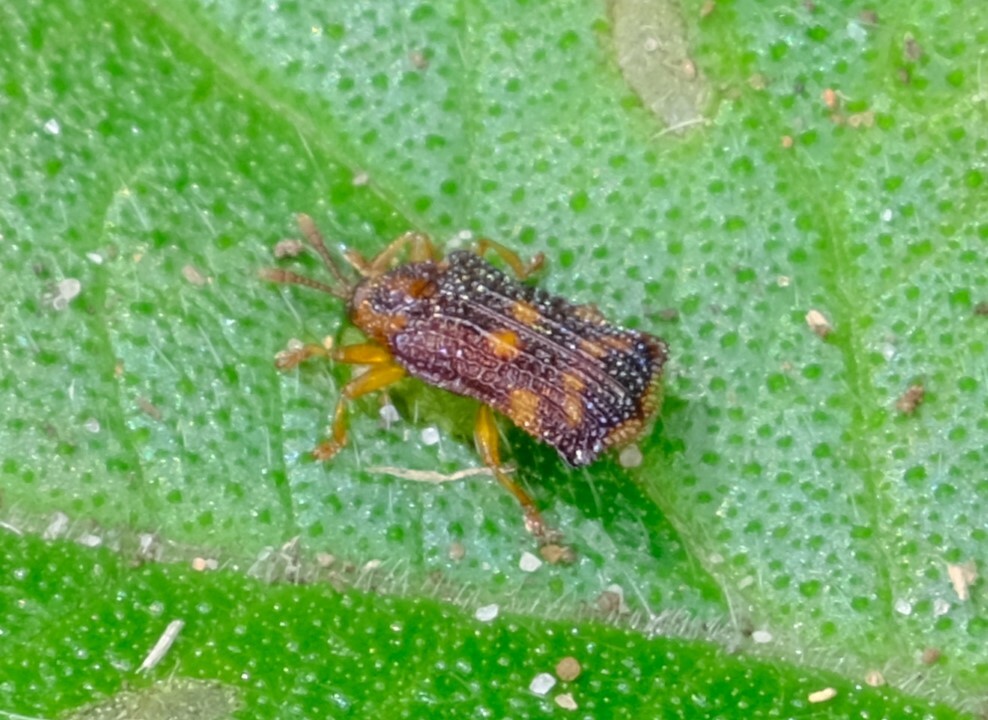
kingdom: Animalia
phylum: Arthropoda
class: Insecta
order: Coleoptera
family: Chrysomelidae
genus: Uroplata
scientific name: Uroplata girardi
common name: Lantana leafminer
